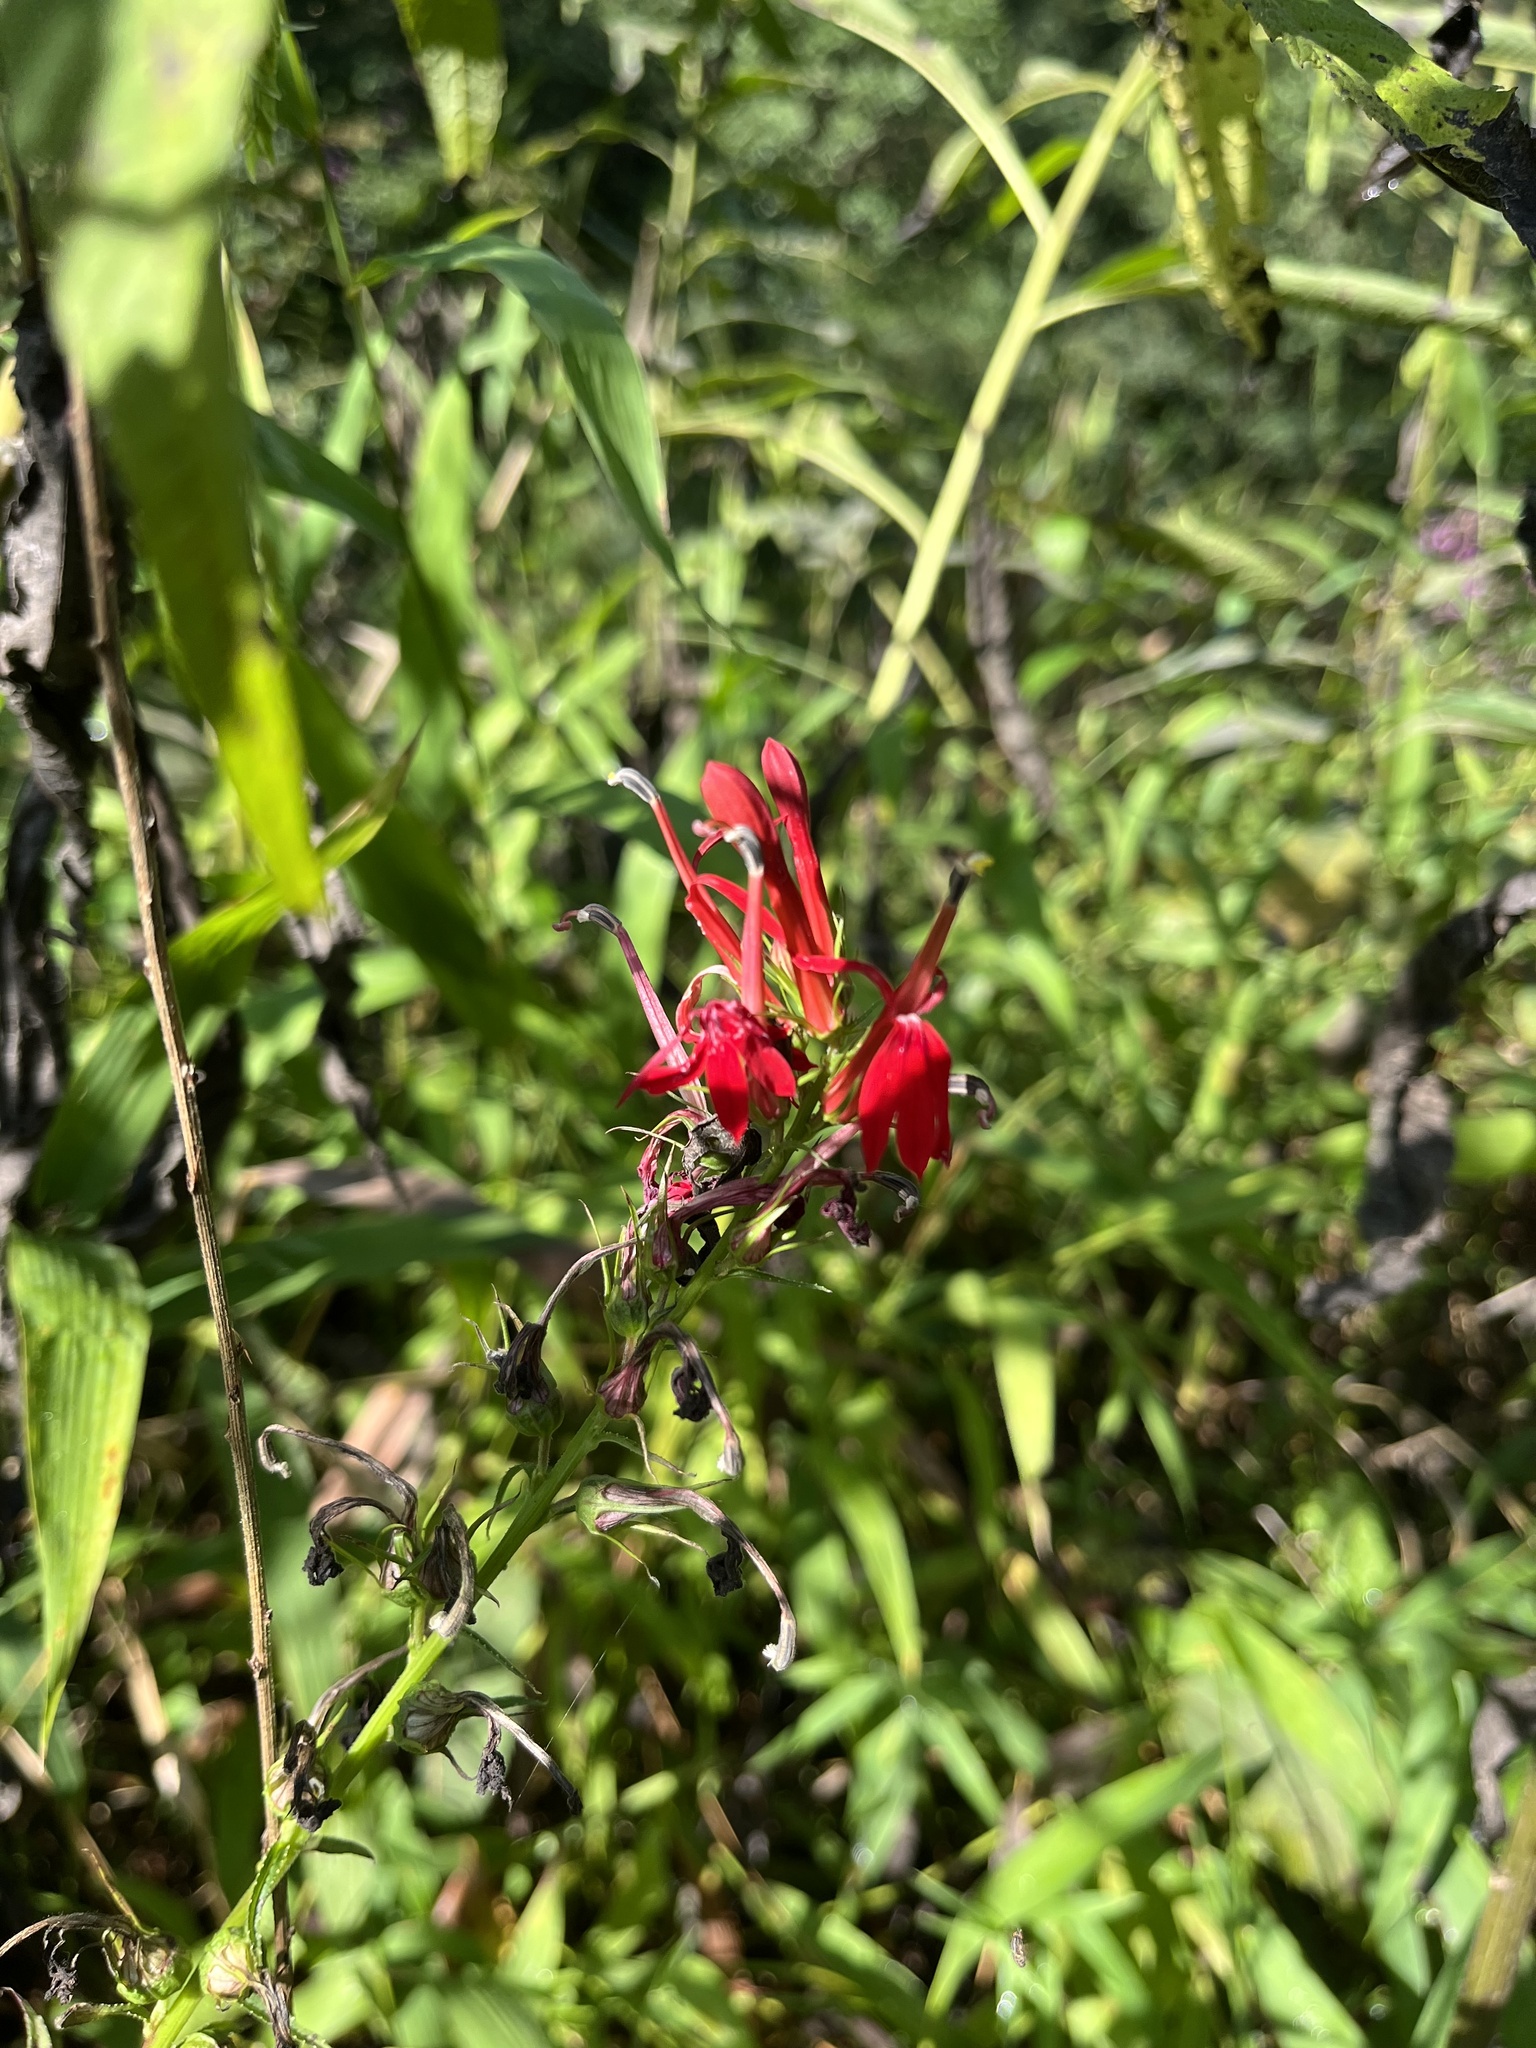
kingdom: Plantae
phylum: Tracheophyta
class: Magnoliopsida
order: Asterales
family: Campanulaceae
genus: Lobelia
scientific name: Lobelia cardinalis
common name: Cardinal flower
